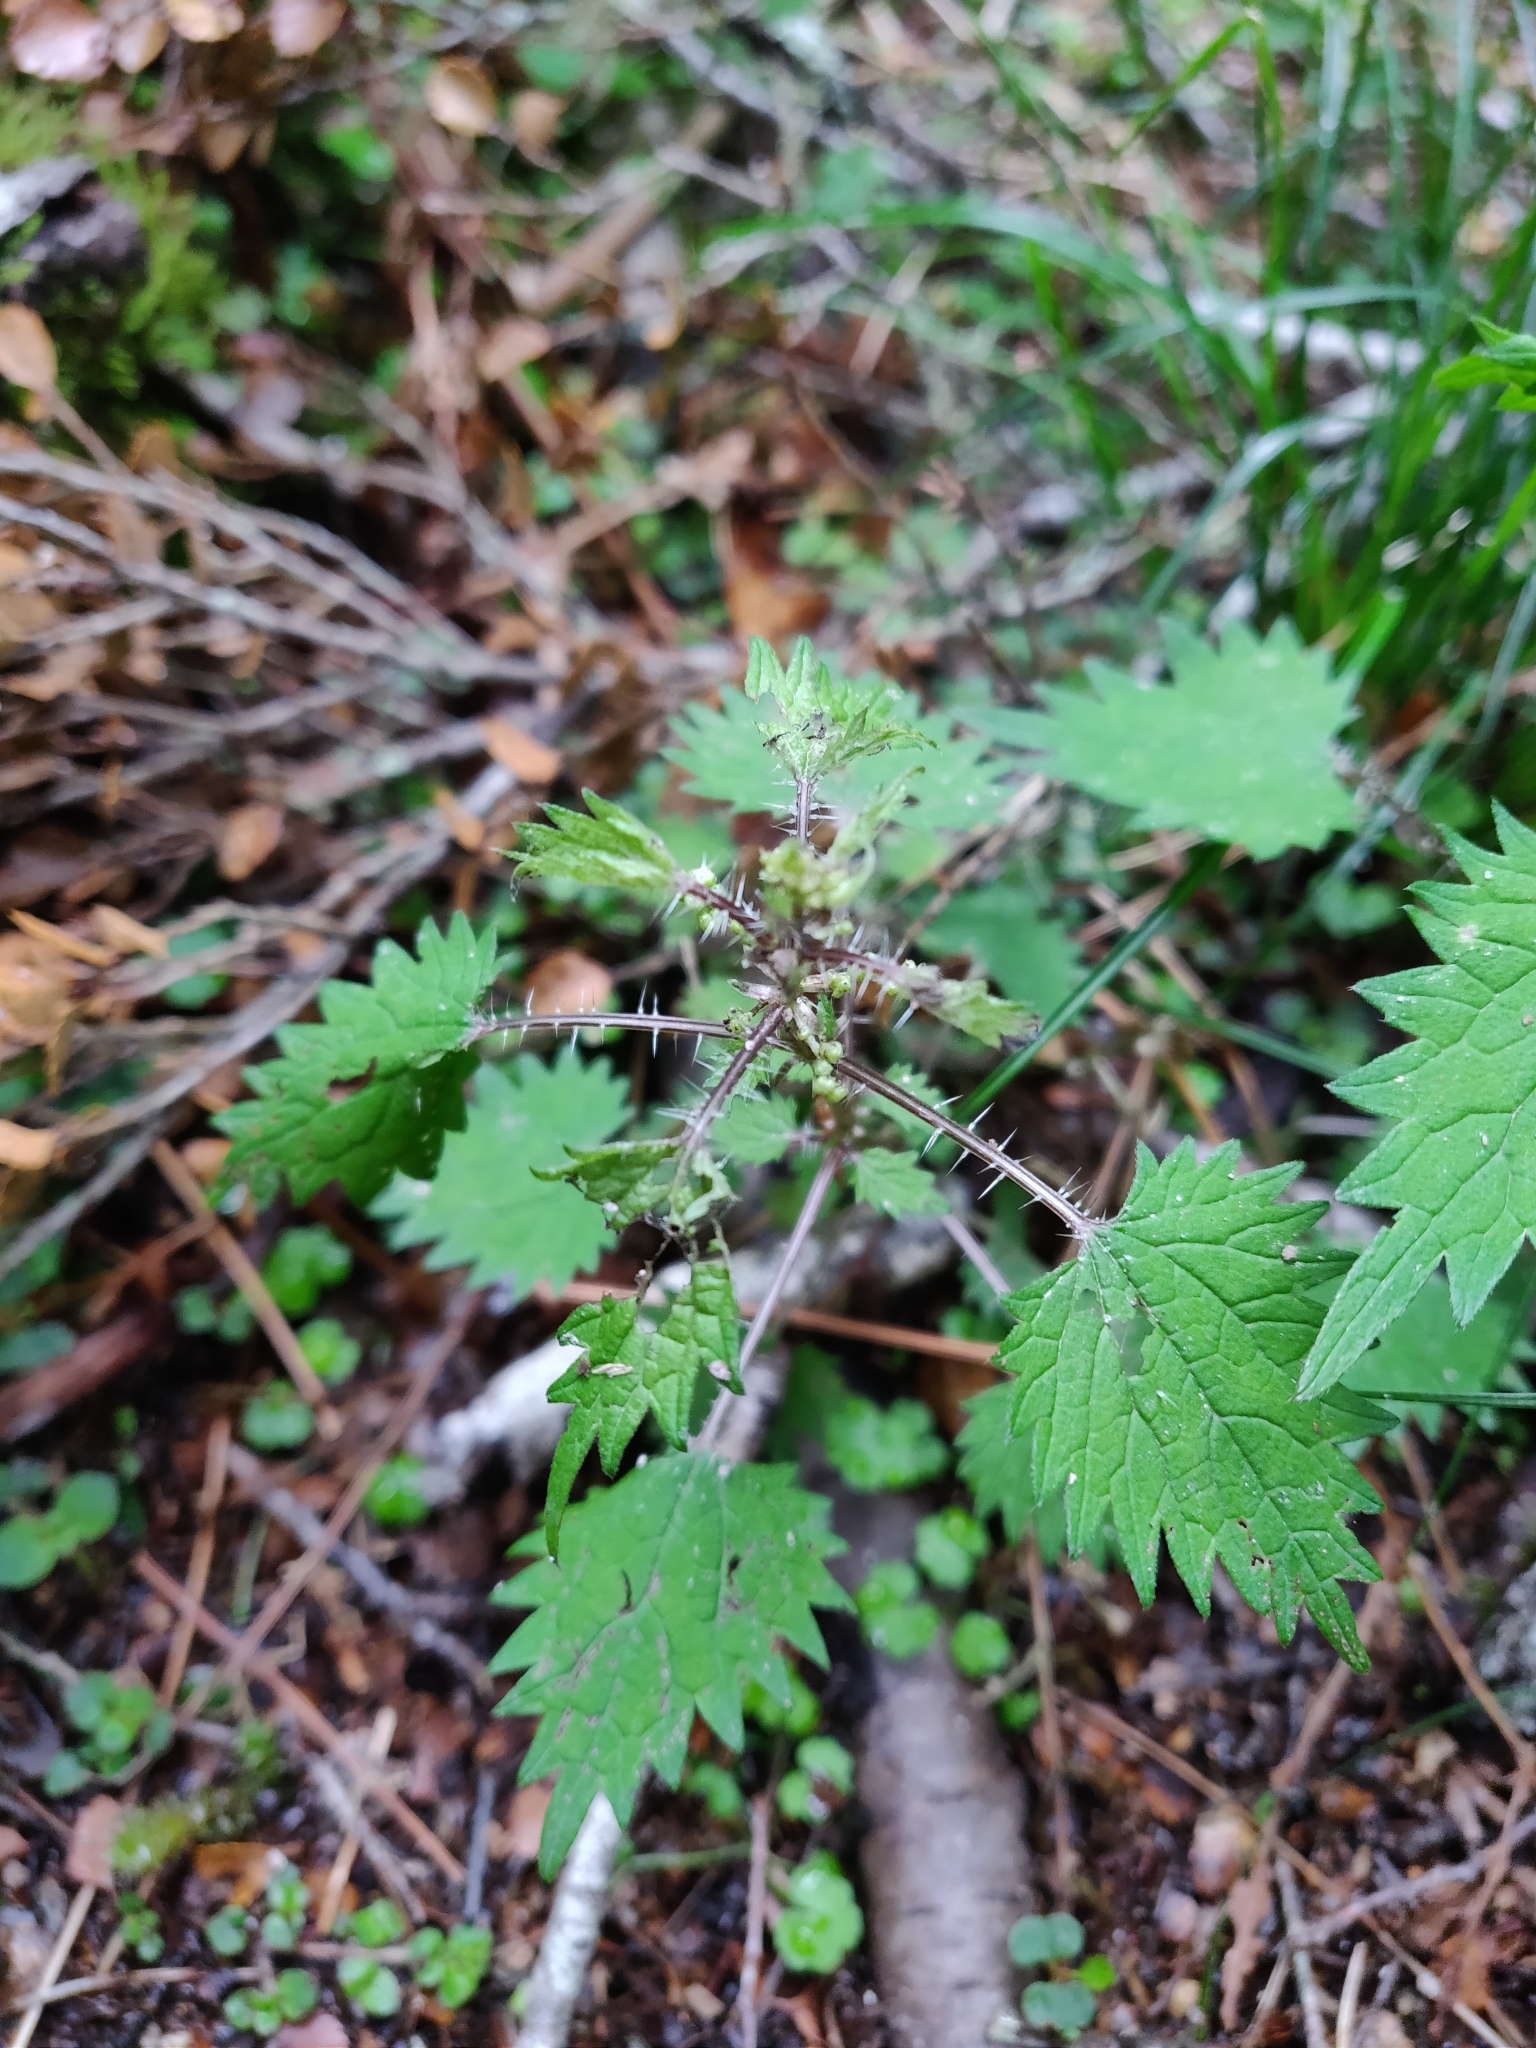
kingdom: Plantae
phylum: Tracheophyta
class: Magnoliopsida
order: Rosales
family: Urticaceae
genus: Urtica
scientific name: Urtica sykesii
